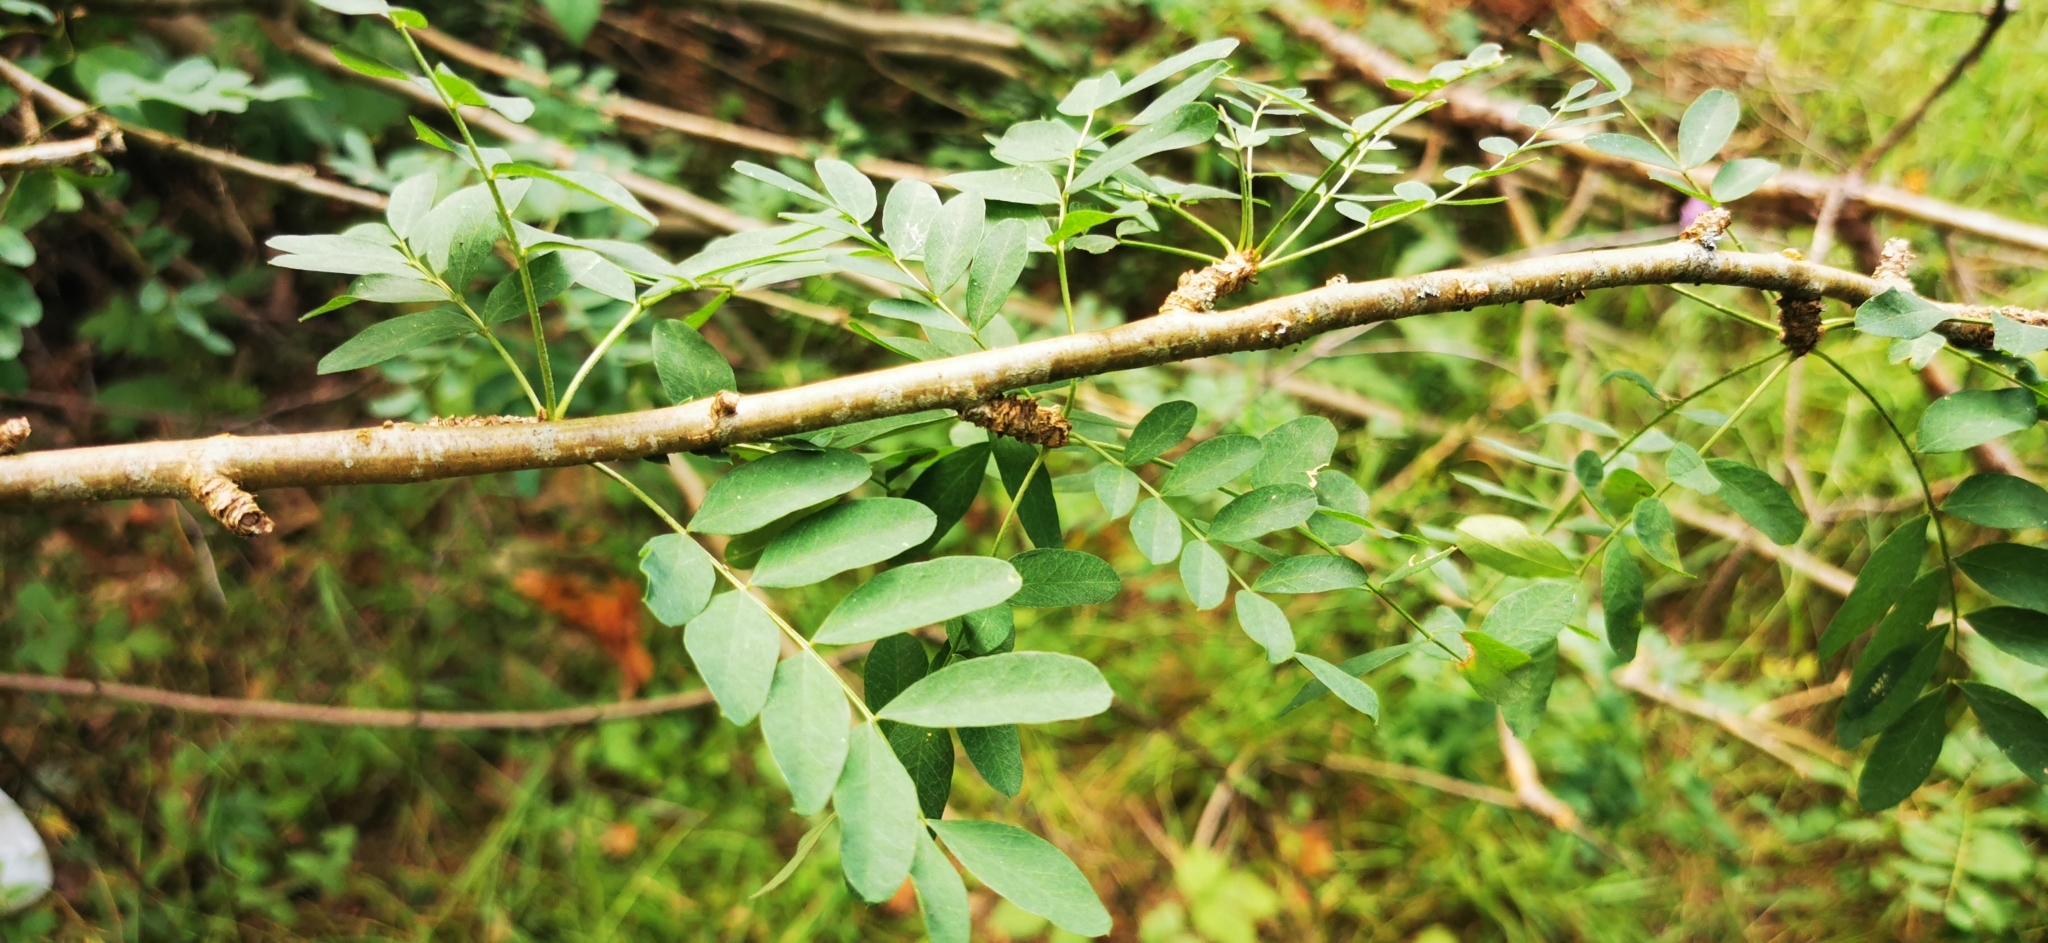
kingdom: Plantae
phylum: Tracheophyta
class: Magnoliopsida
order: Fabales
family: Fabaceae
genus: Caragana
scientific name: Caragana arborescens
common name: Siberian peashrub
